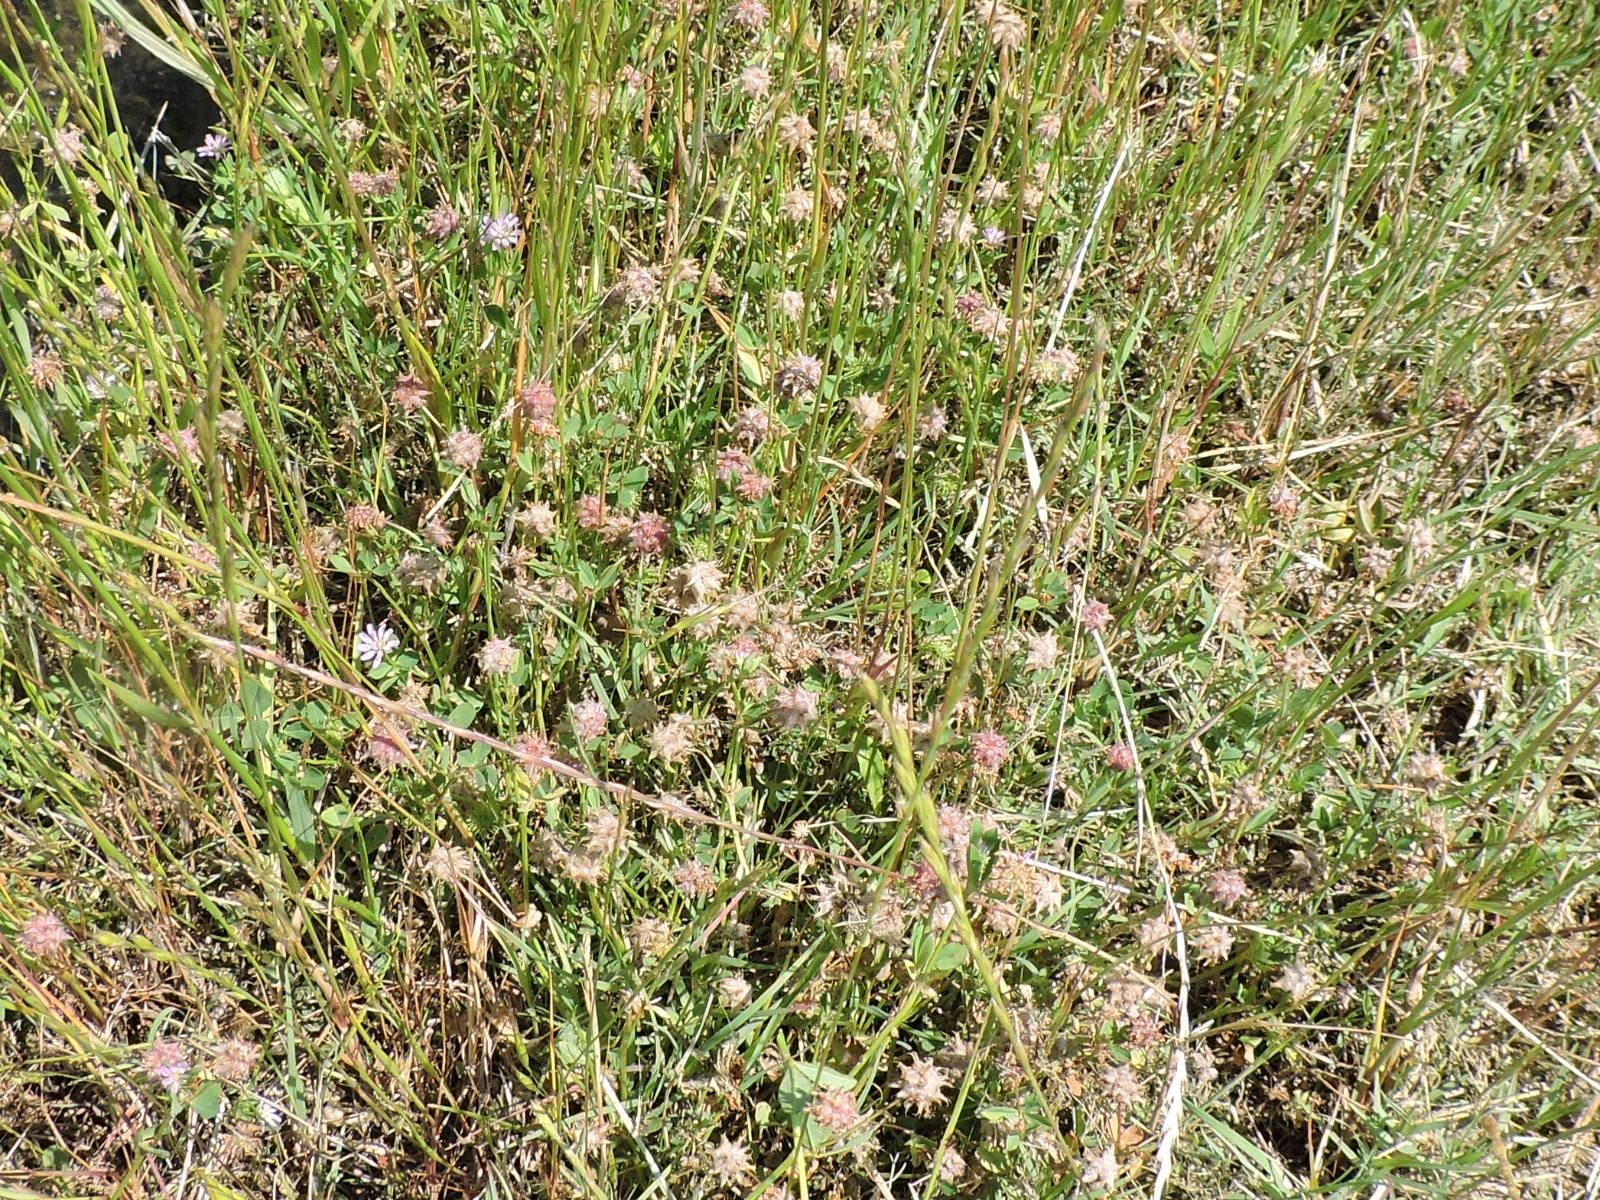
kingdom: Plantae
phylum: Tracheophyta
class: Magnoliopsida
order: Fabales
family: Fabaceae
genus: Trifolium
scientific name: Trifolium resupinatum
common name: Reversed clover
